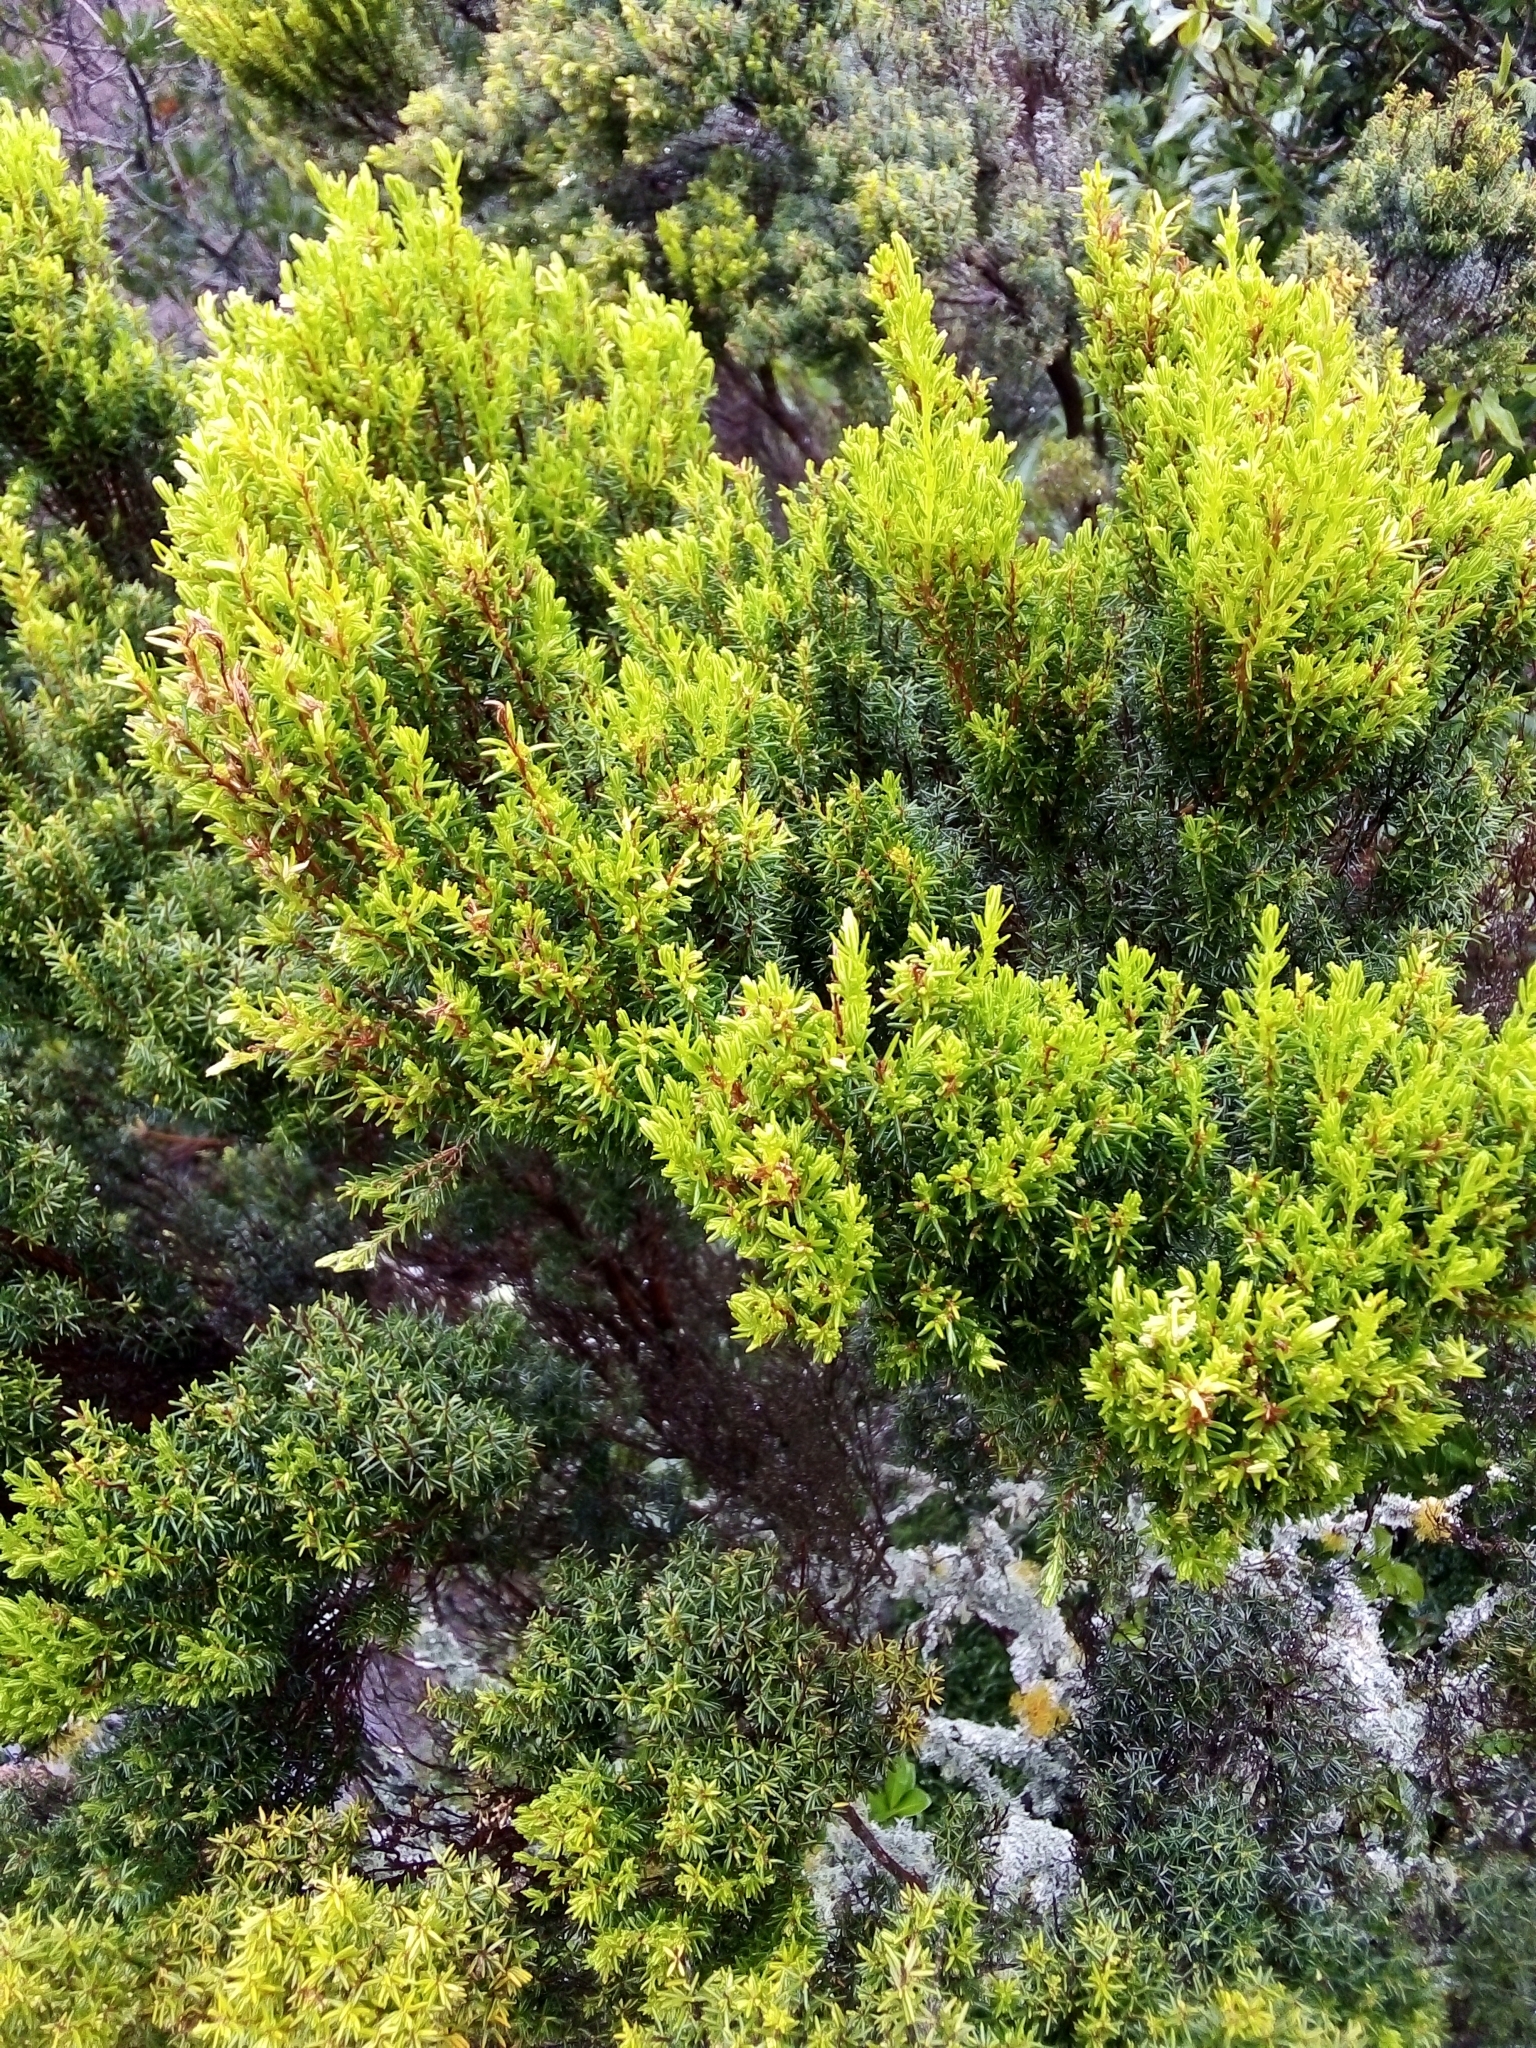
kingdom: Plantae
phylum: Tracheophyta
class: Magnoliopsida
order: Ericales
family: Ericaceae
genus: Erica
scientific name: Erica azorica
